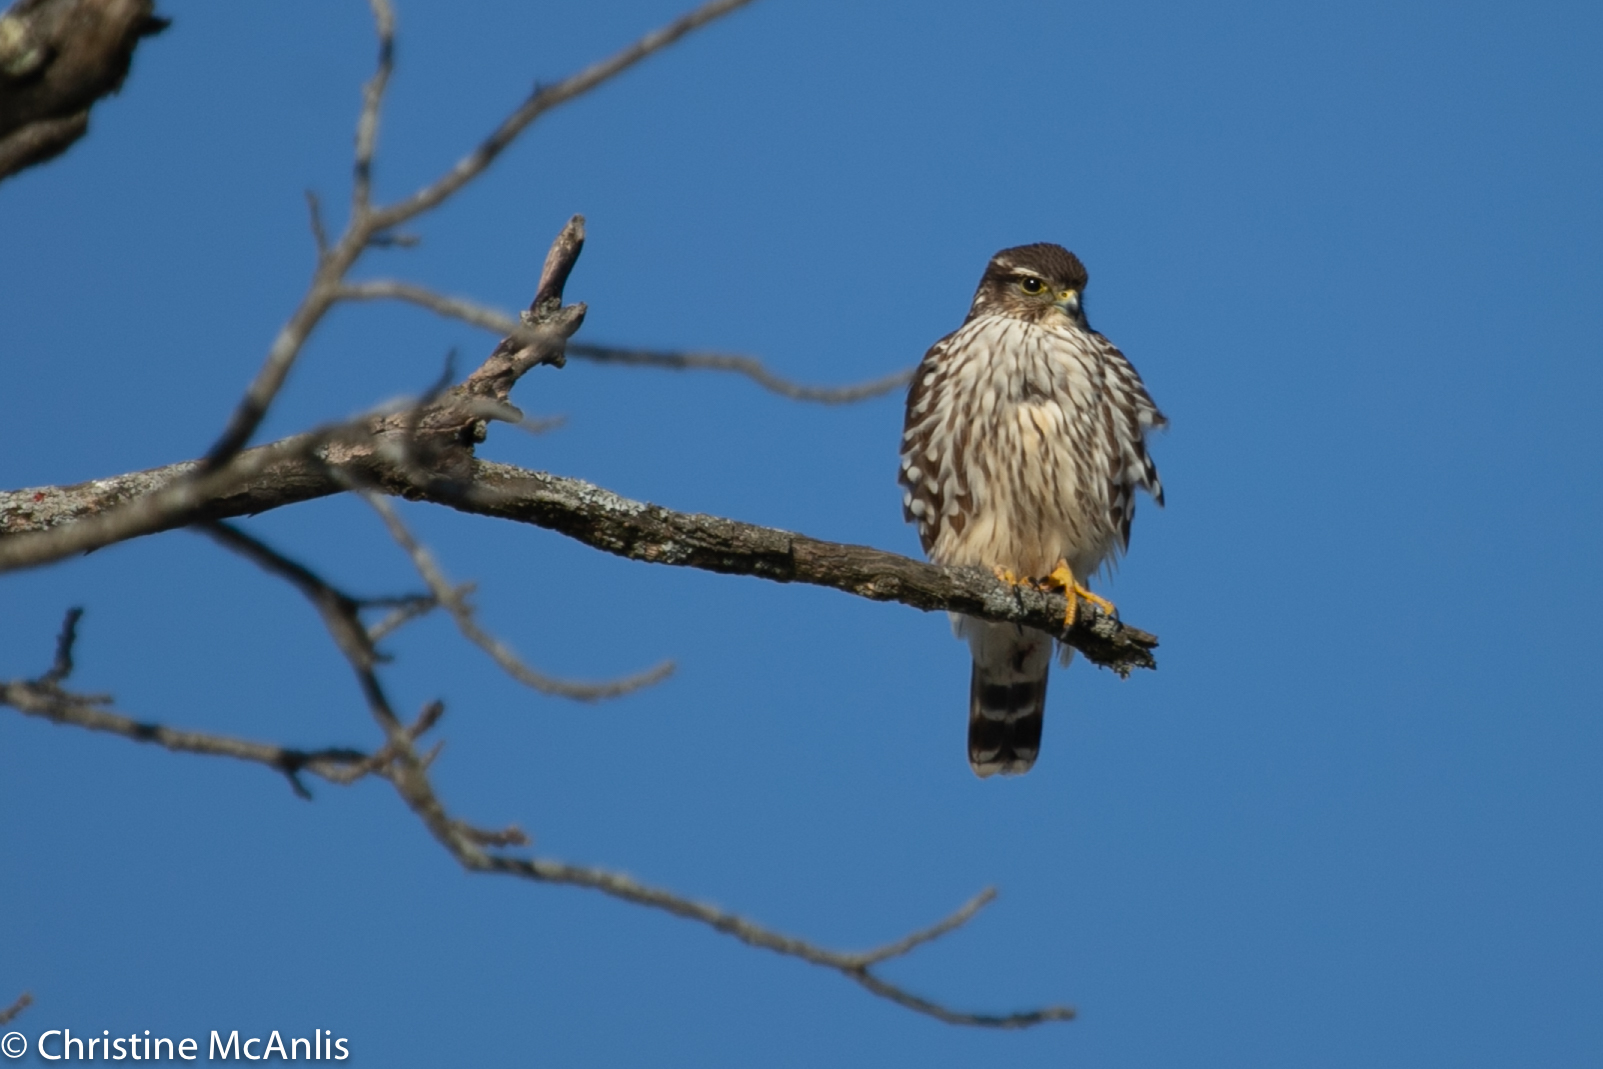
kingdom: Animalia
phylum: Chordata
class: Aves
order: Falconiformes
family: Falconidae
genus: Falco
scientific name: Falco columbarius
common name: Merlin
